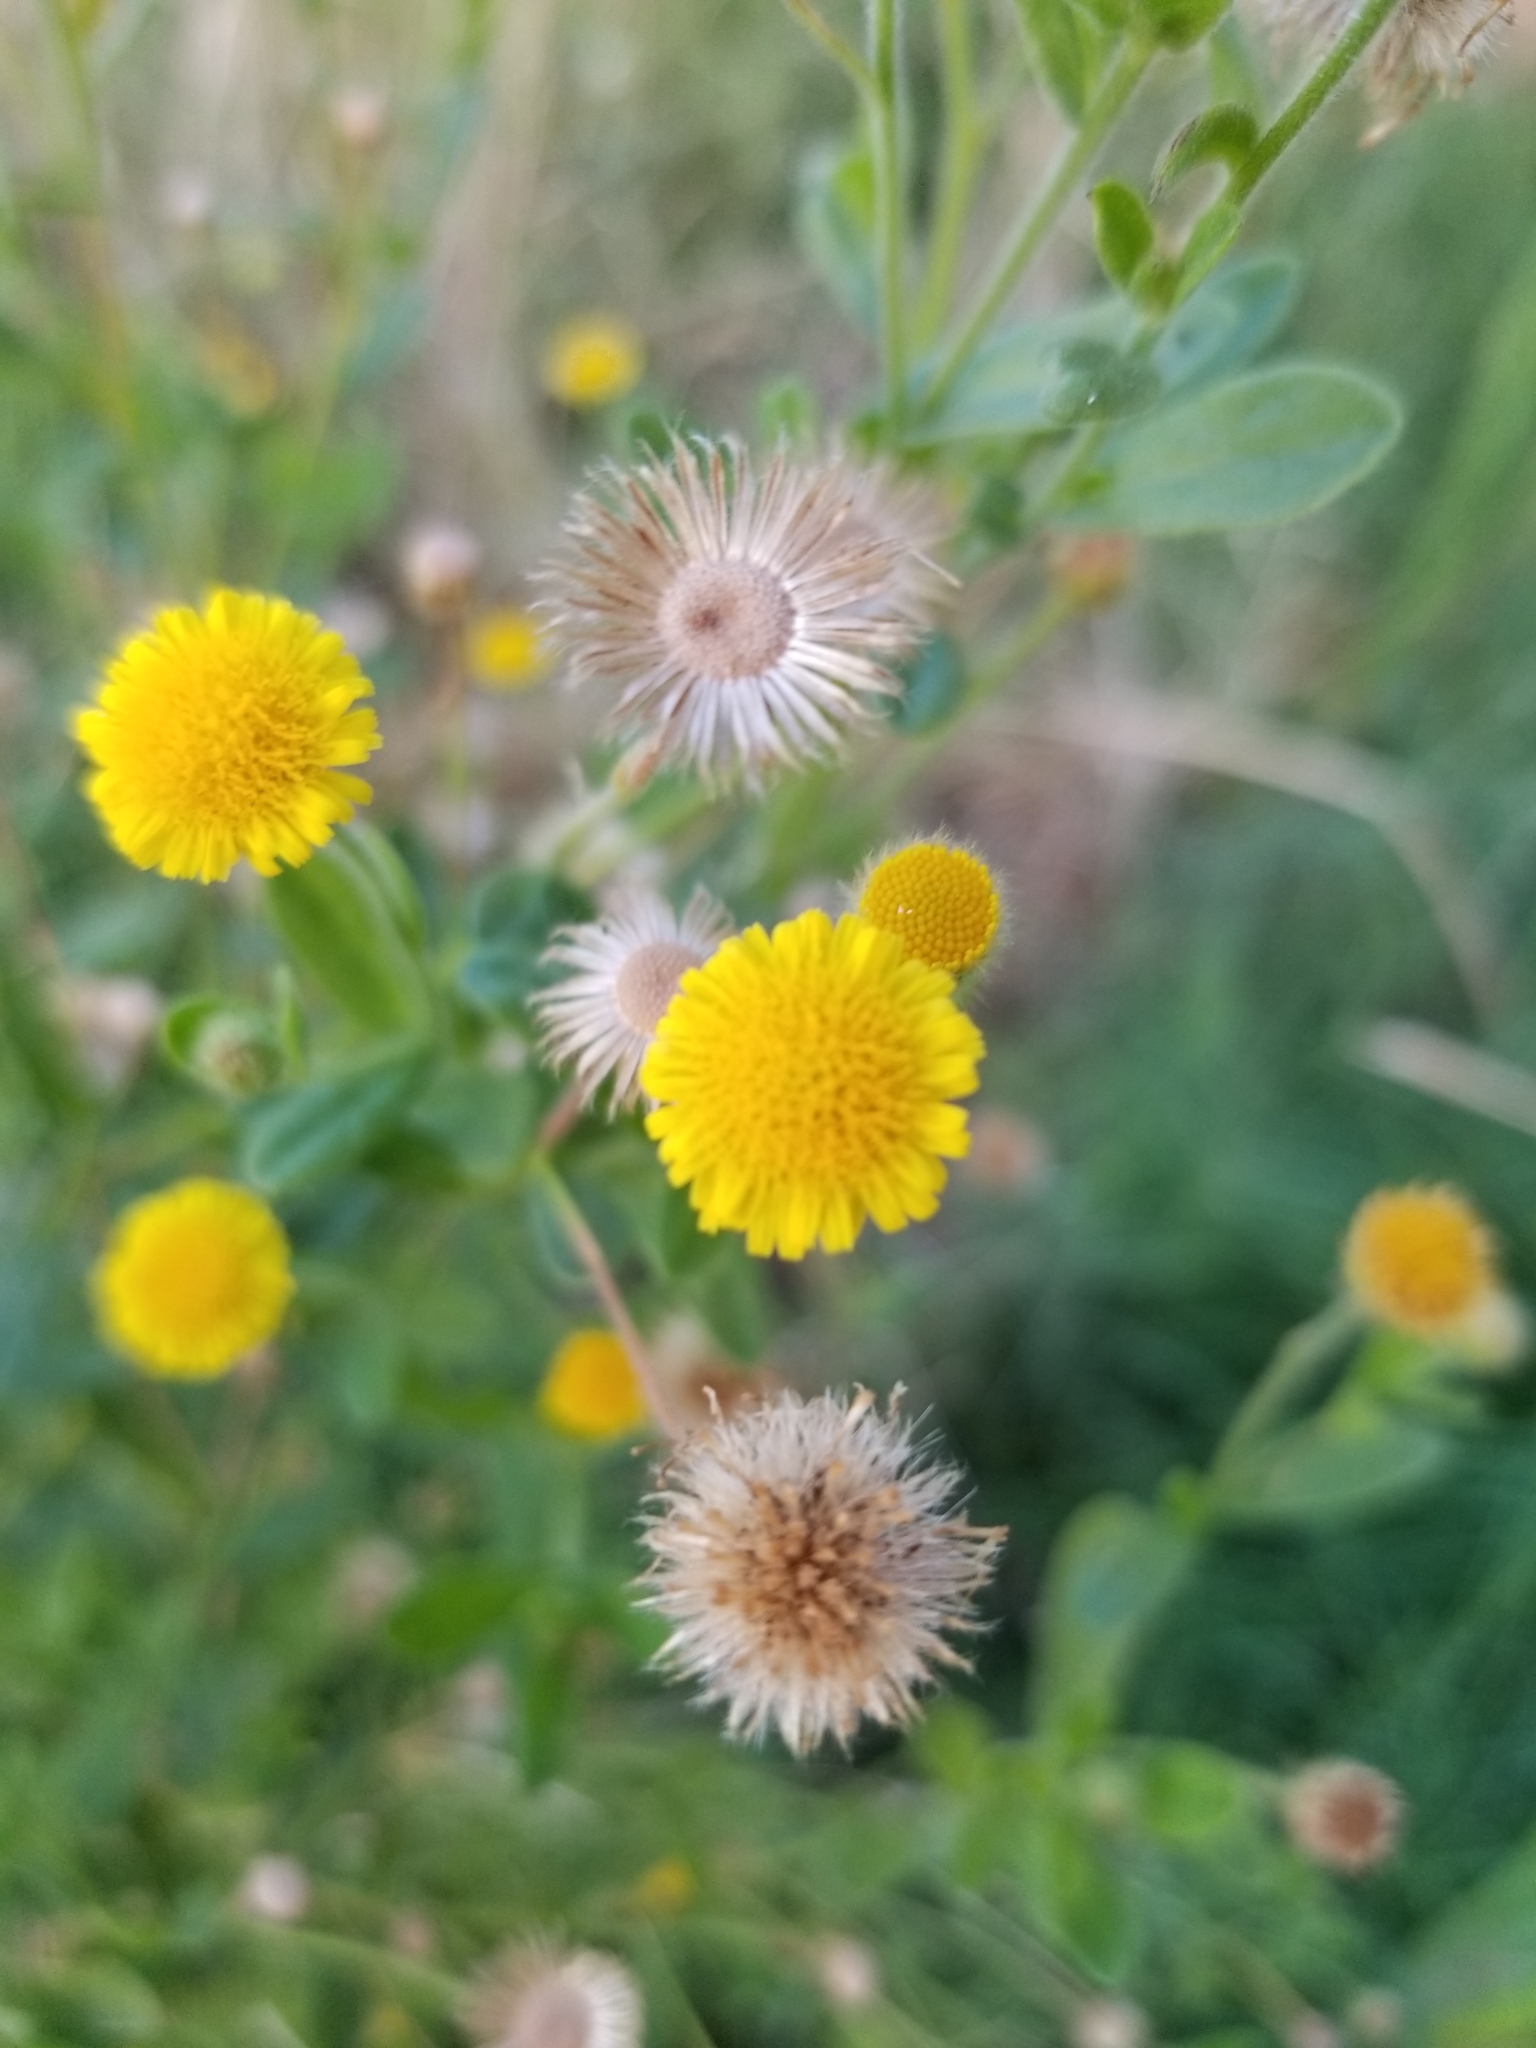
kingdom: Plantae
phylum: Tracheophyta
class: Magnoliopsida
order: Asterales
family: Asteraceae
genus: Pulicaria
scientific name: Pulicaria paludosa
